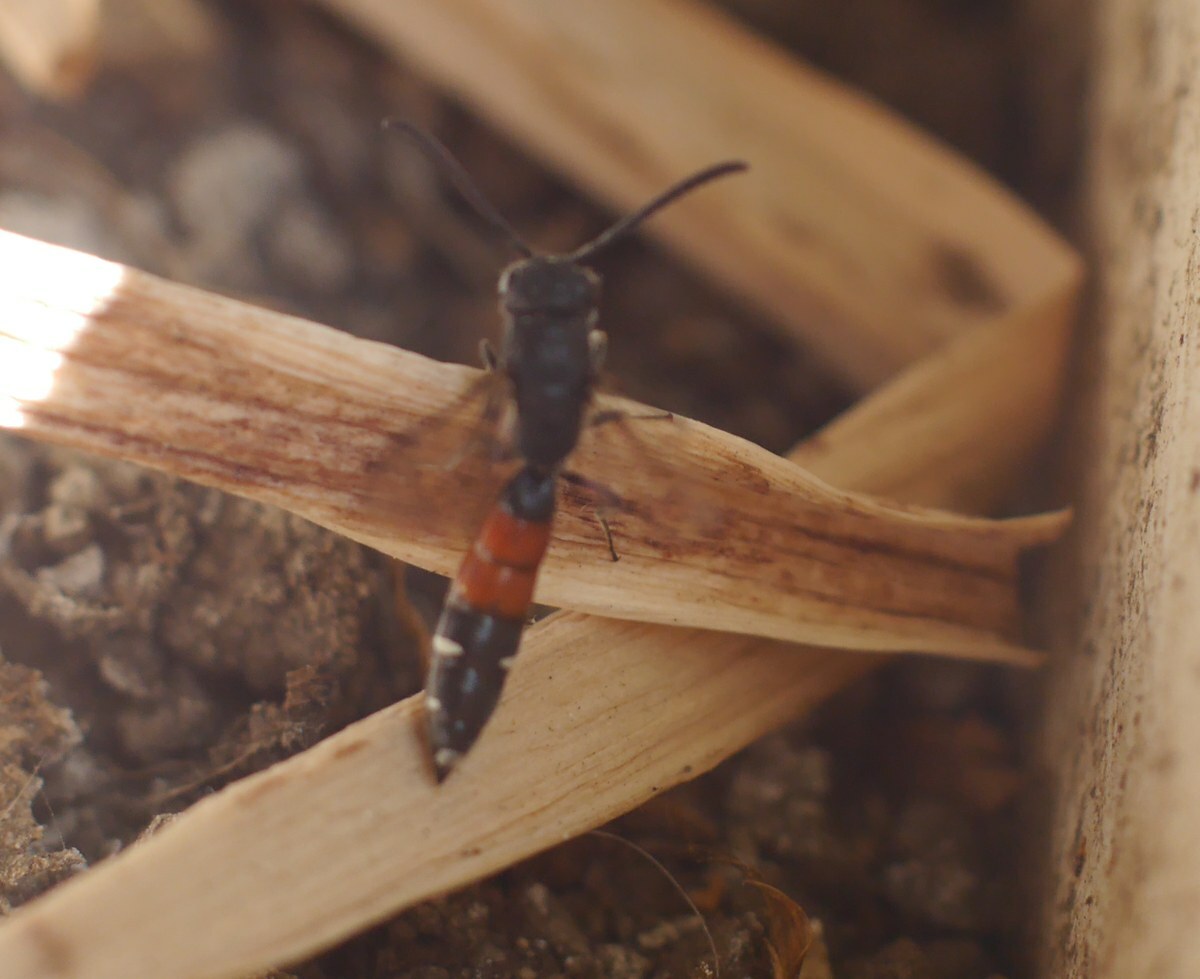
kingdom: Animalia
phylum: Arthropoda
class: Insecta
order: Hymenoptera
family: Sapygidae
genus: Sapyga
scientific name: Sapyga quinquepunctata
